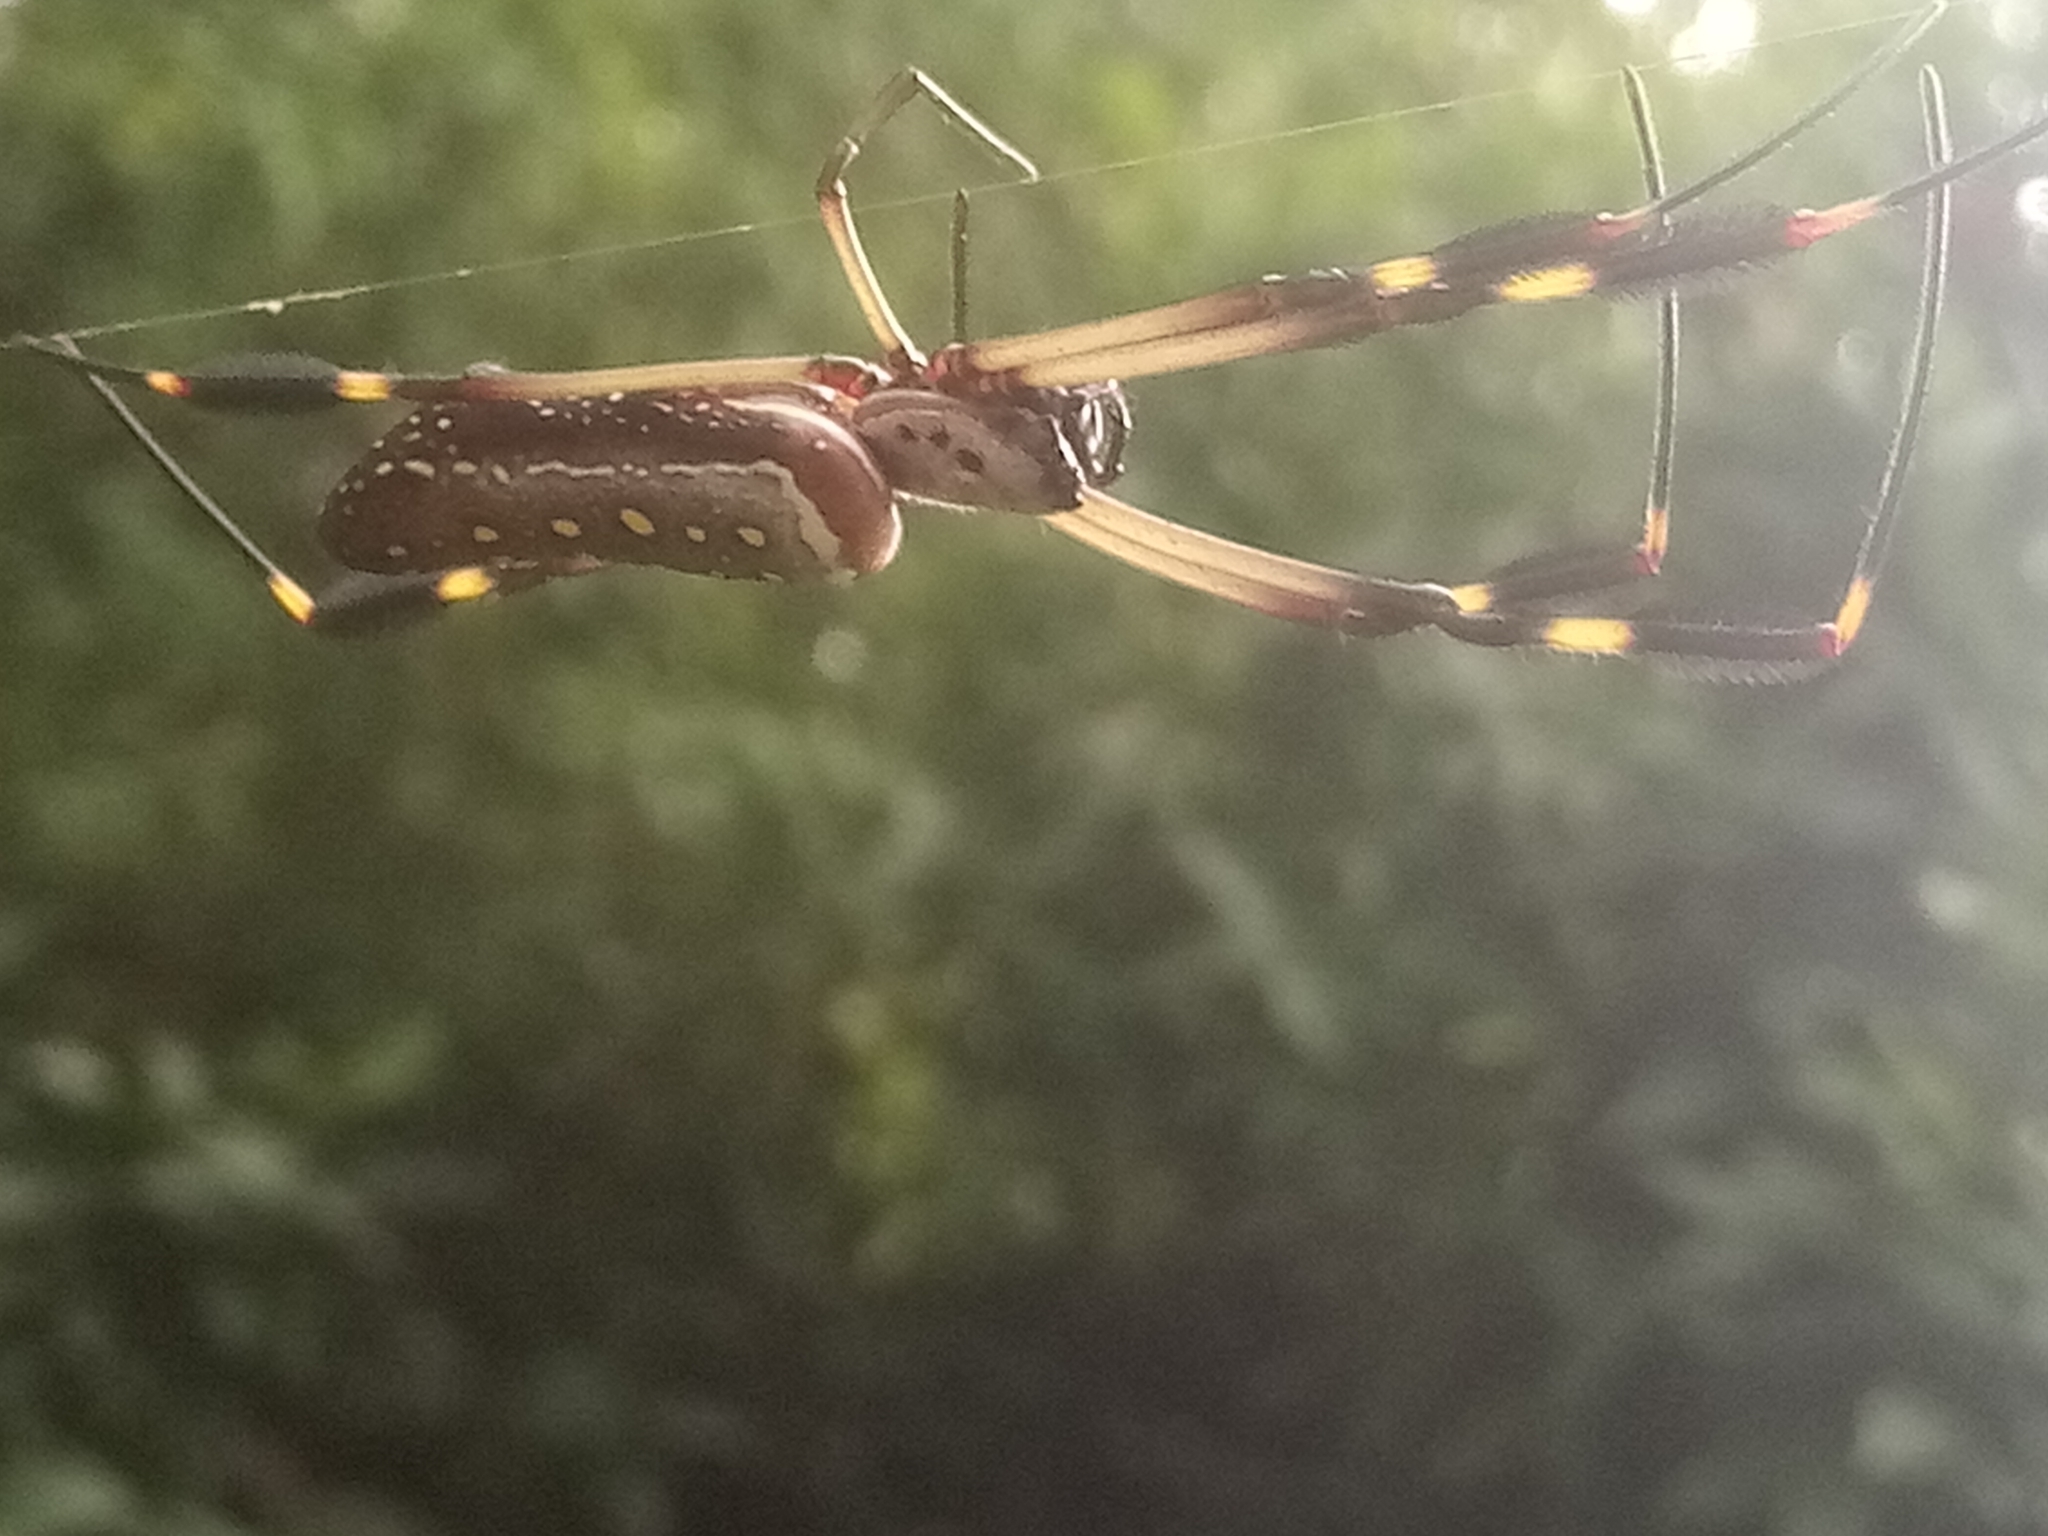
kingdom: Animalia
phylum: Arthropoda
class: Arachnida
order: Araneae
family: Araneidae
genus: Trichonephila
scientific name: Trichonephila clavipes
